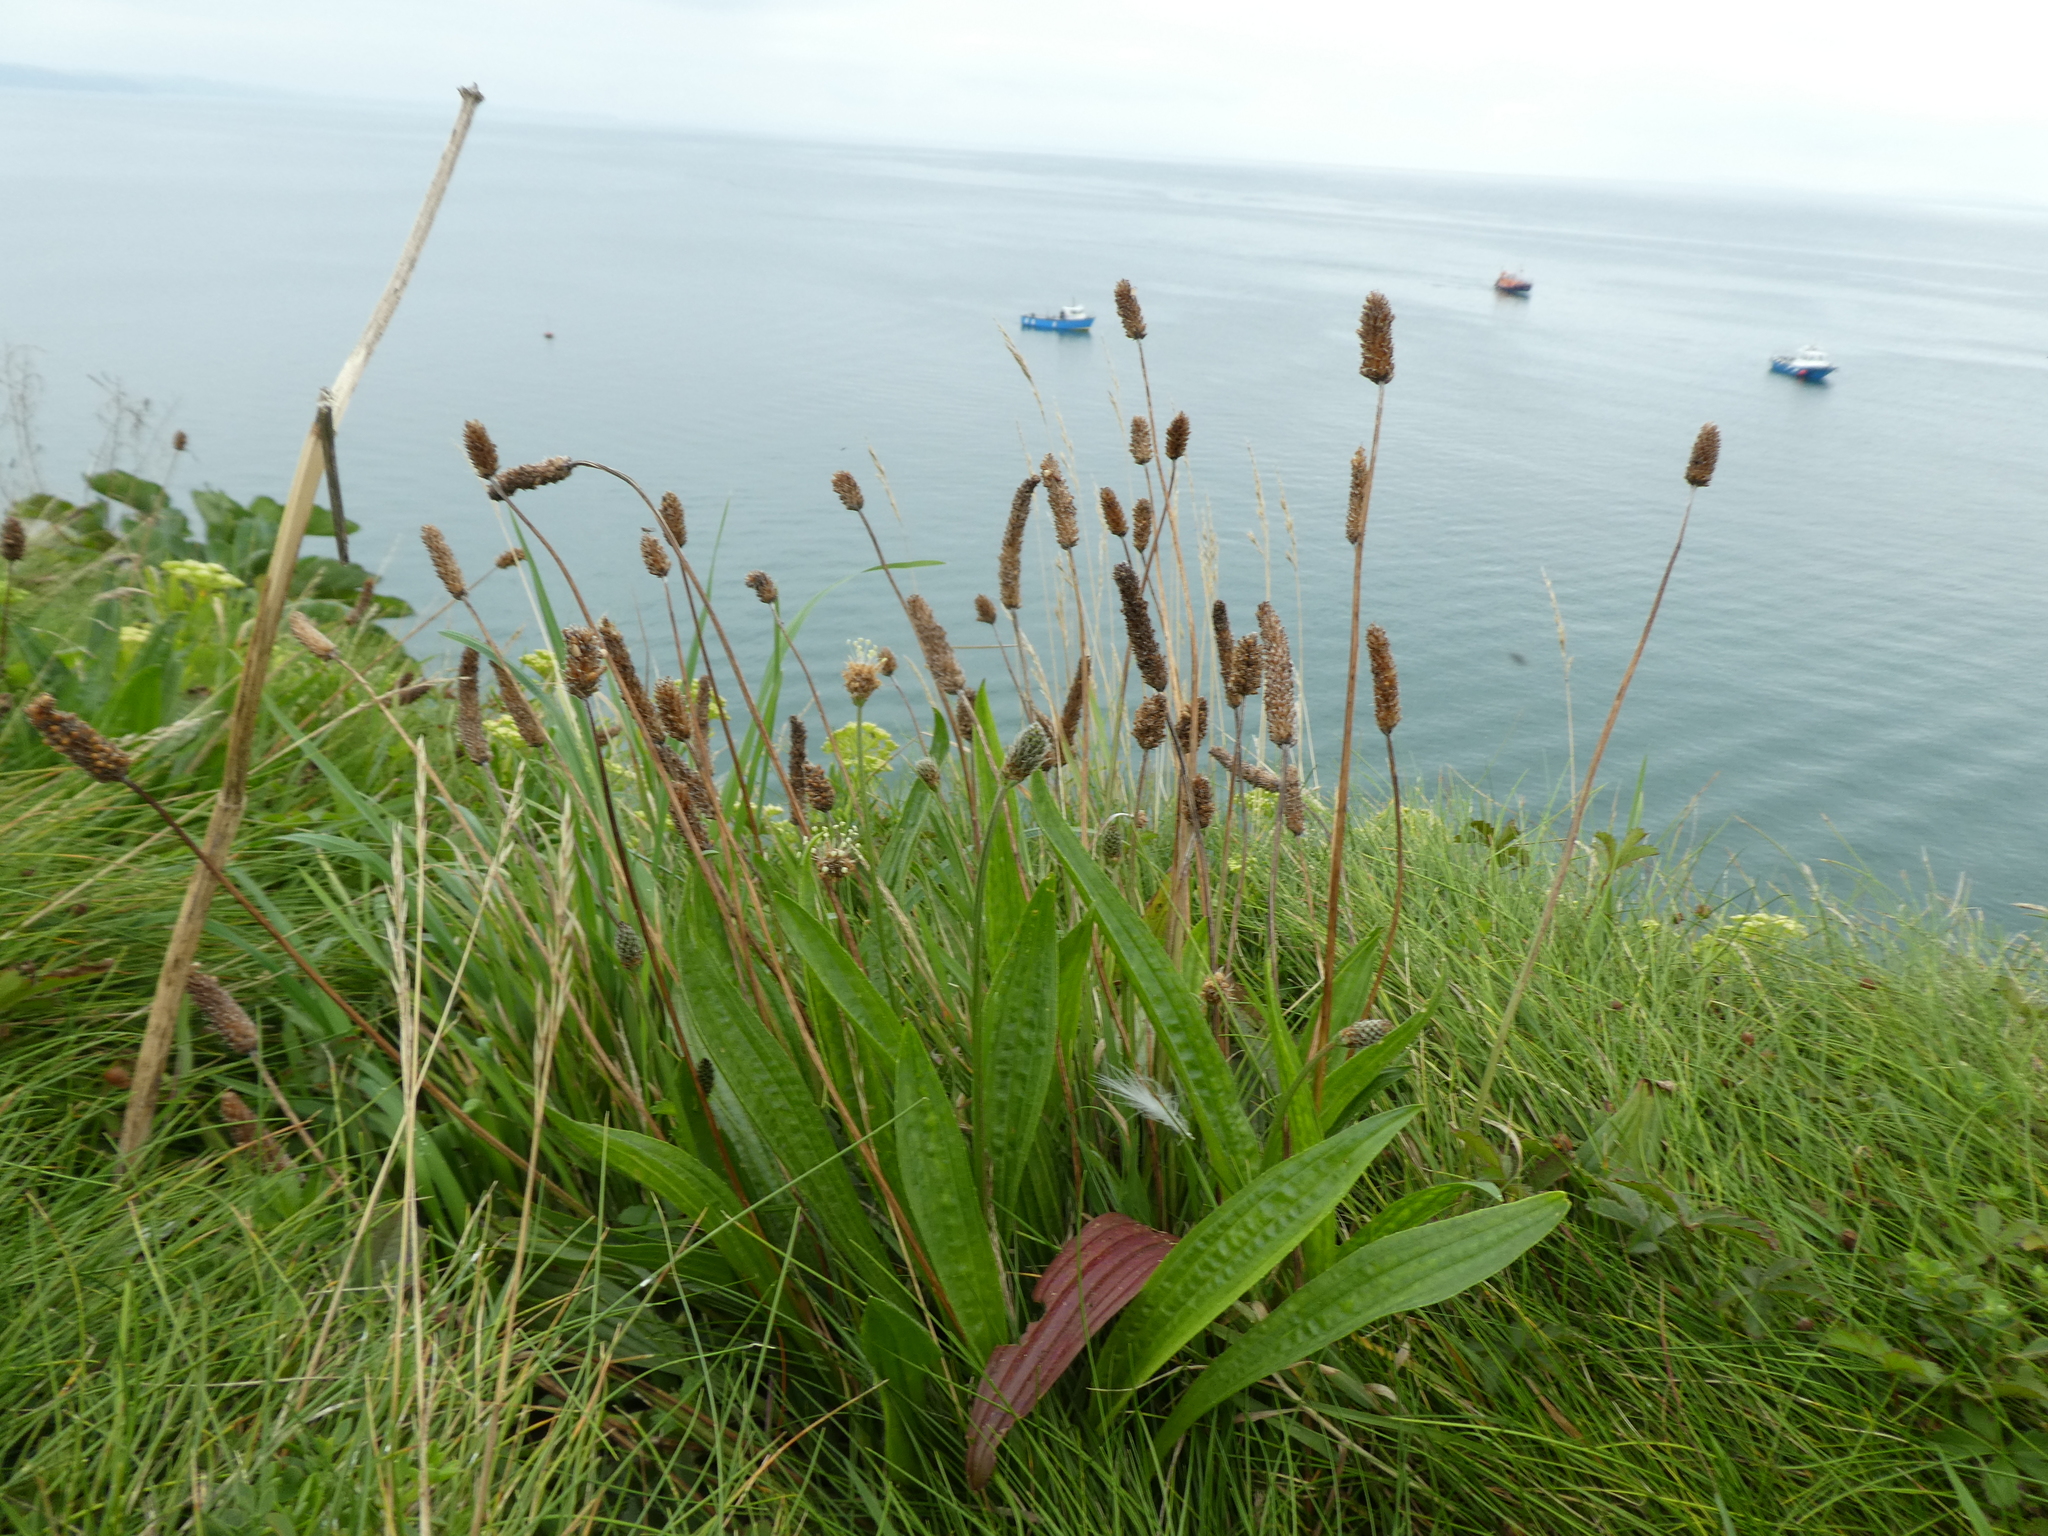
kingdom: Plantae
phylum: Tracheophyta
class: Magnoliopsida
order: Lamiales
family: Plantaginaceae
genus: Plantago
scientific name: Plantago lanceolata
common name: Ribwort plantain
